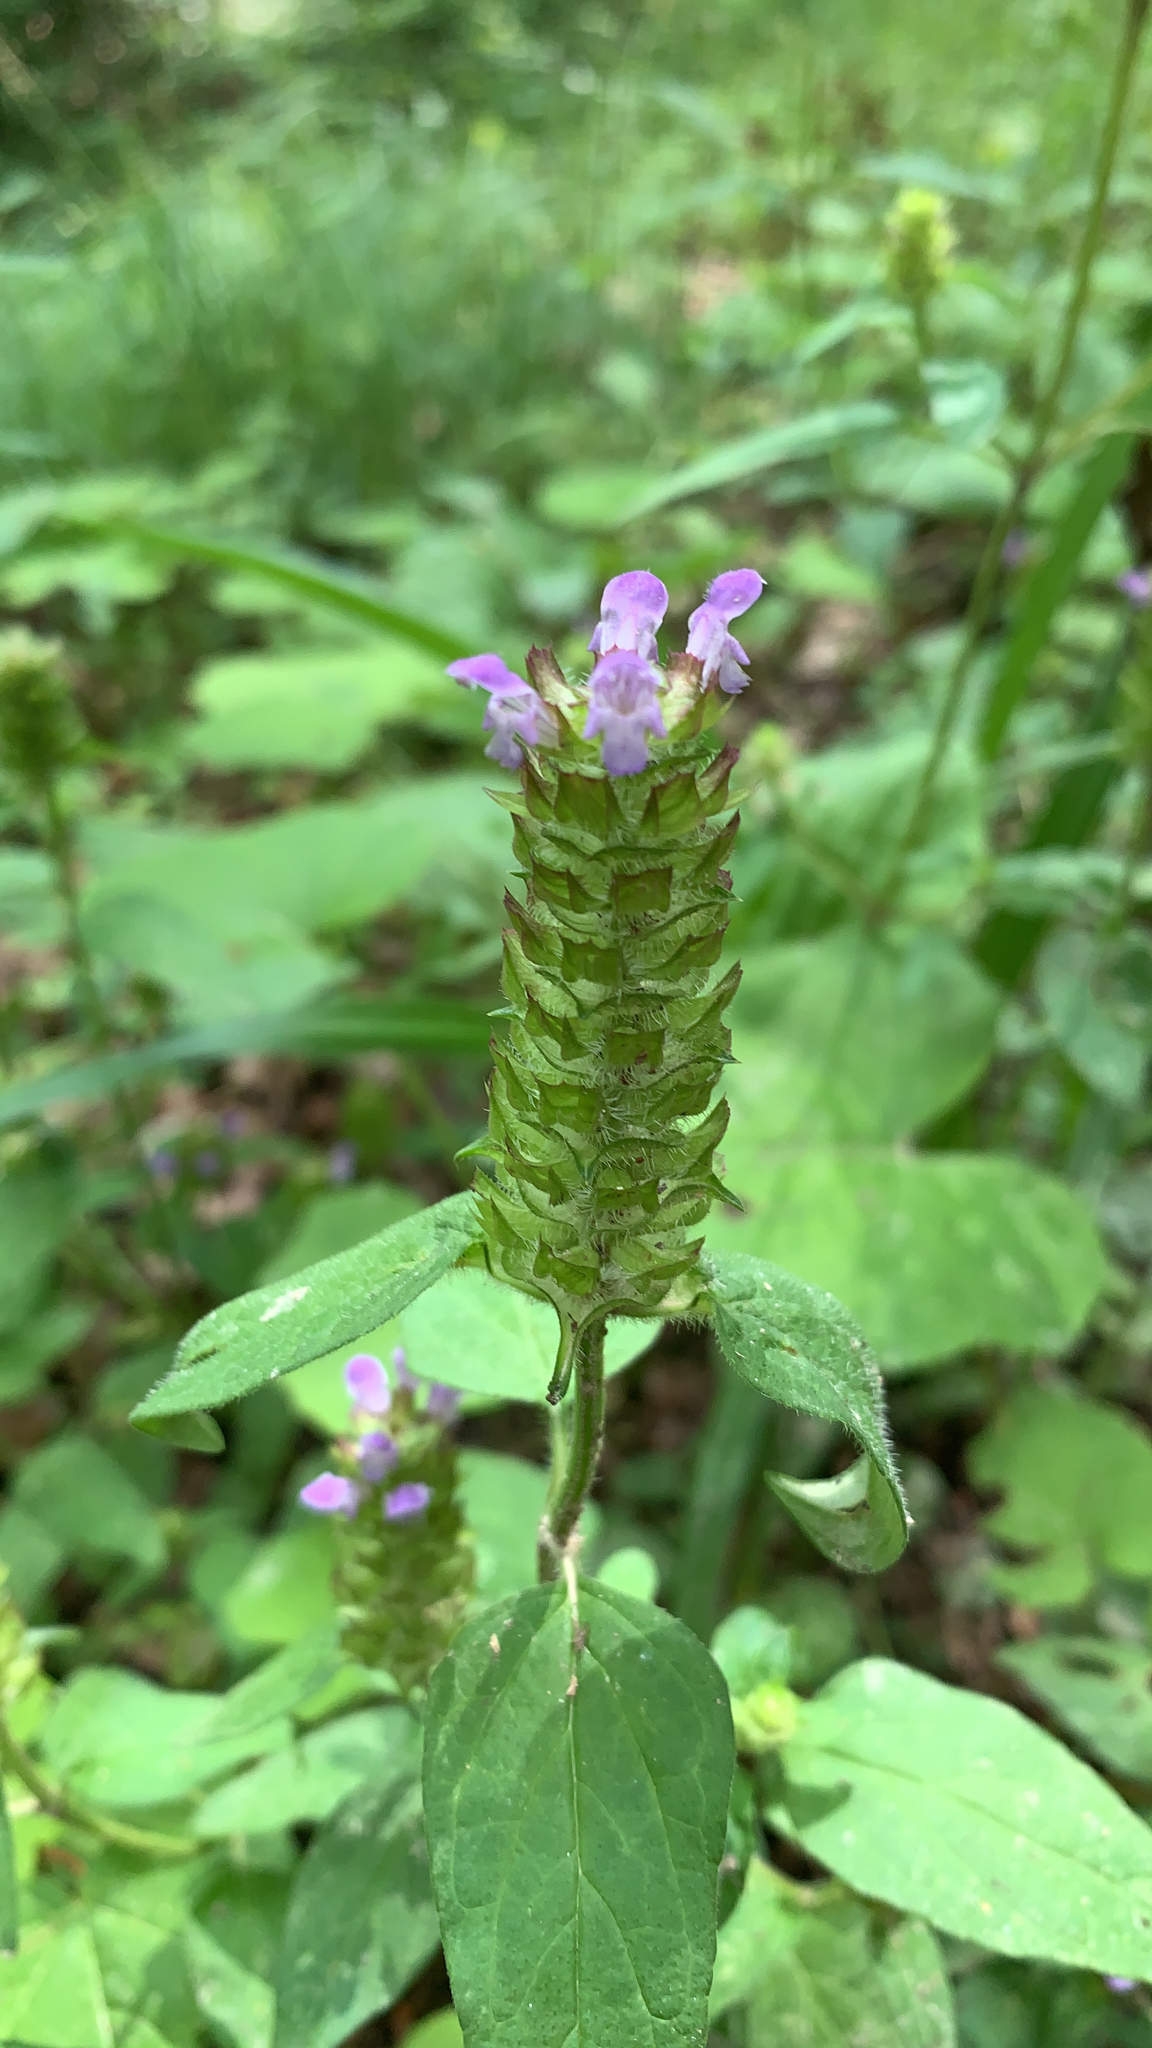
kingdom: Plantae
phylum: Tracheophyta
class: Magnoliopsida
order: Lamiales
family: Lamiaceae
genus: Prunella
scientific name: Prunella vulgaris
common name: Heal-all
